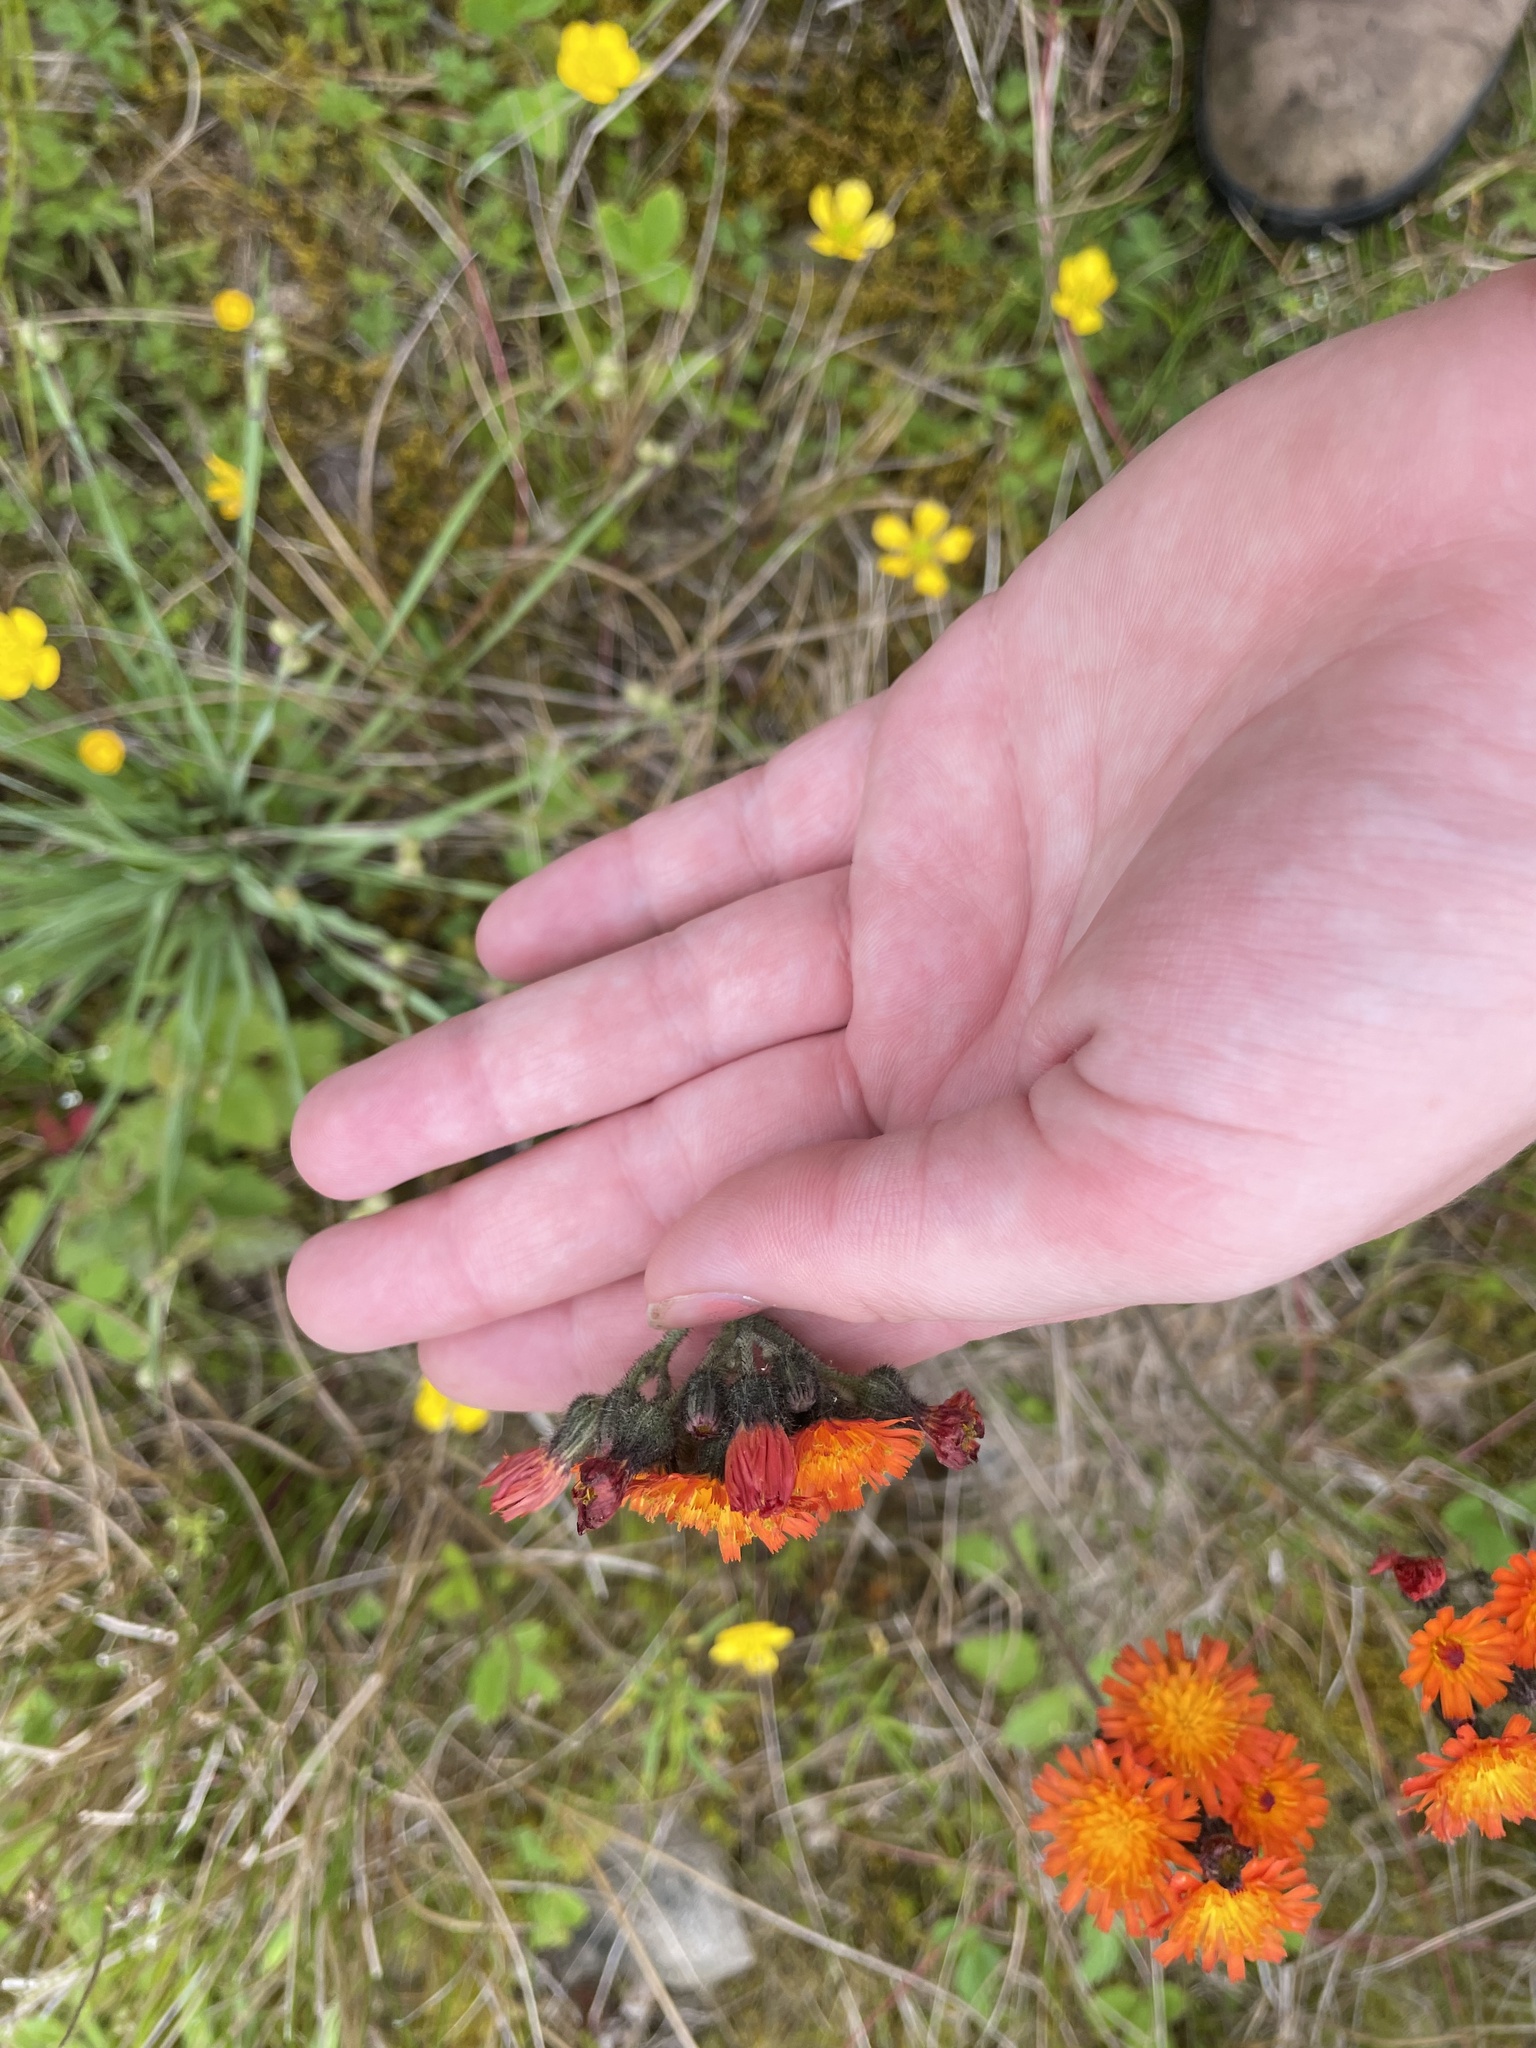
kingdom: Plantae
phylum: Tracheophyta
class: Magnoliopsida
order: Asterales
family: Asteraceae
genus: Pilosella
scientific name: Pilosella aurantiaca
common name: Fox-and-cubs
